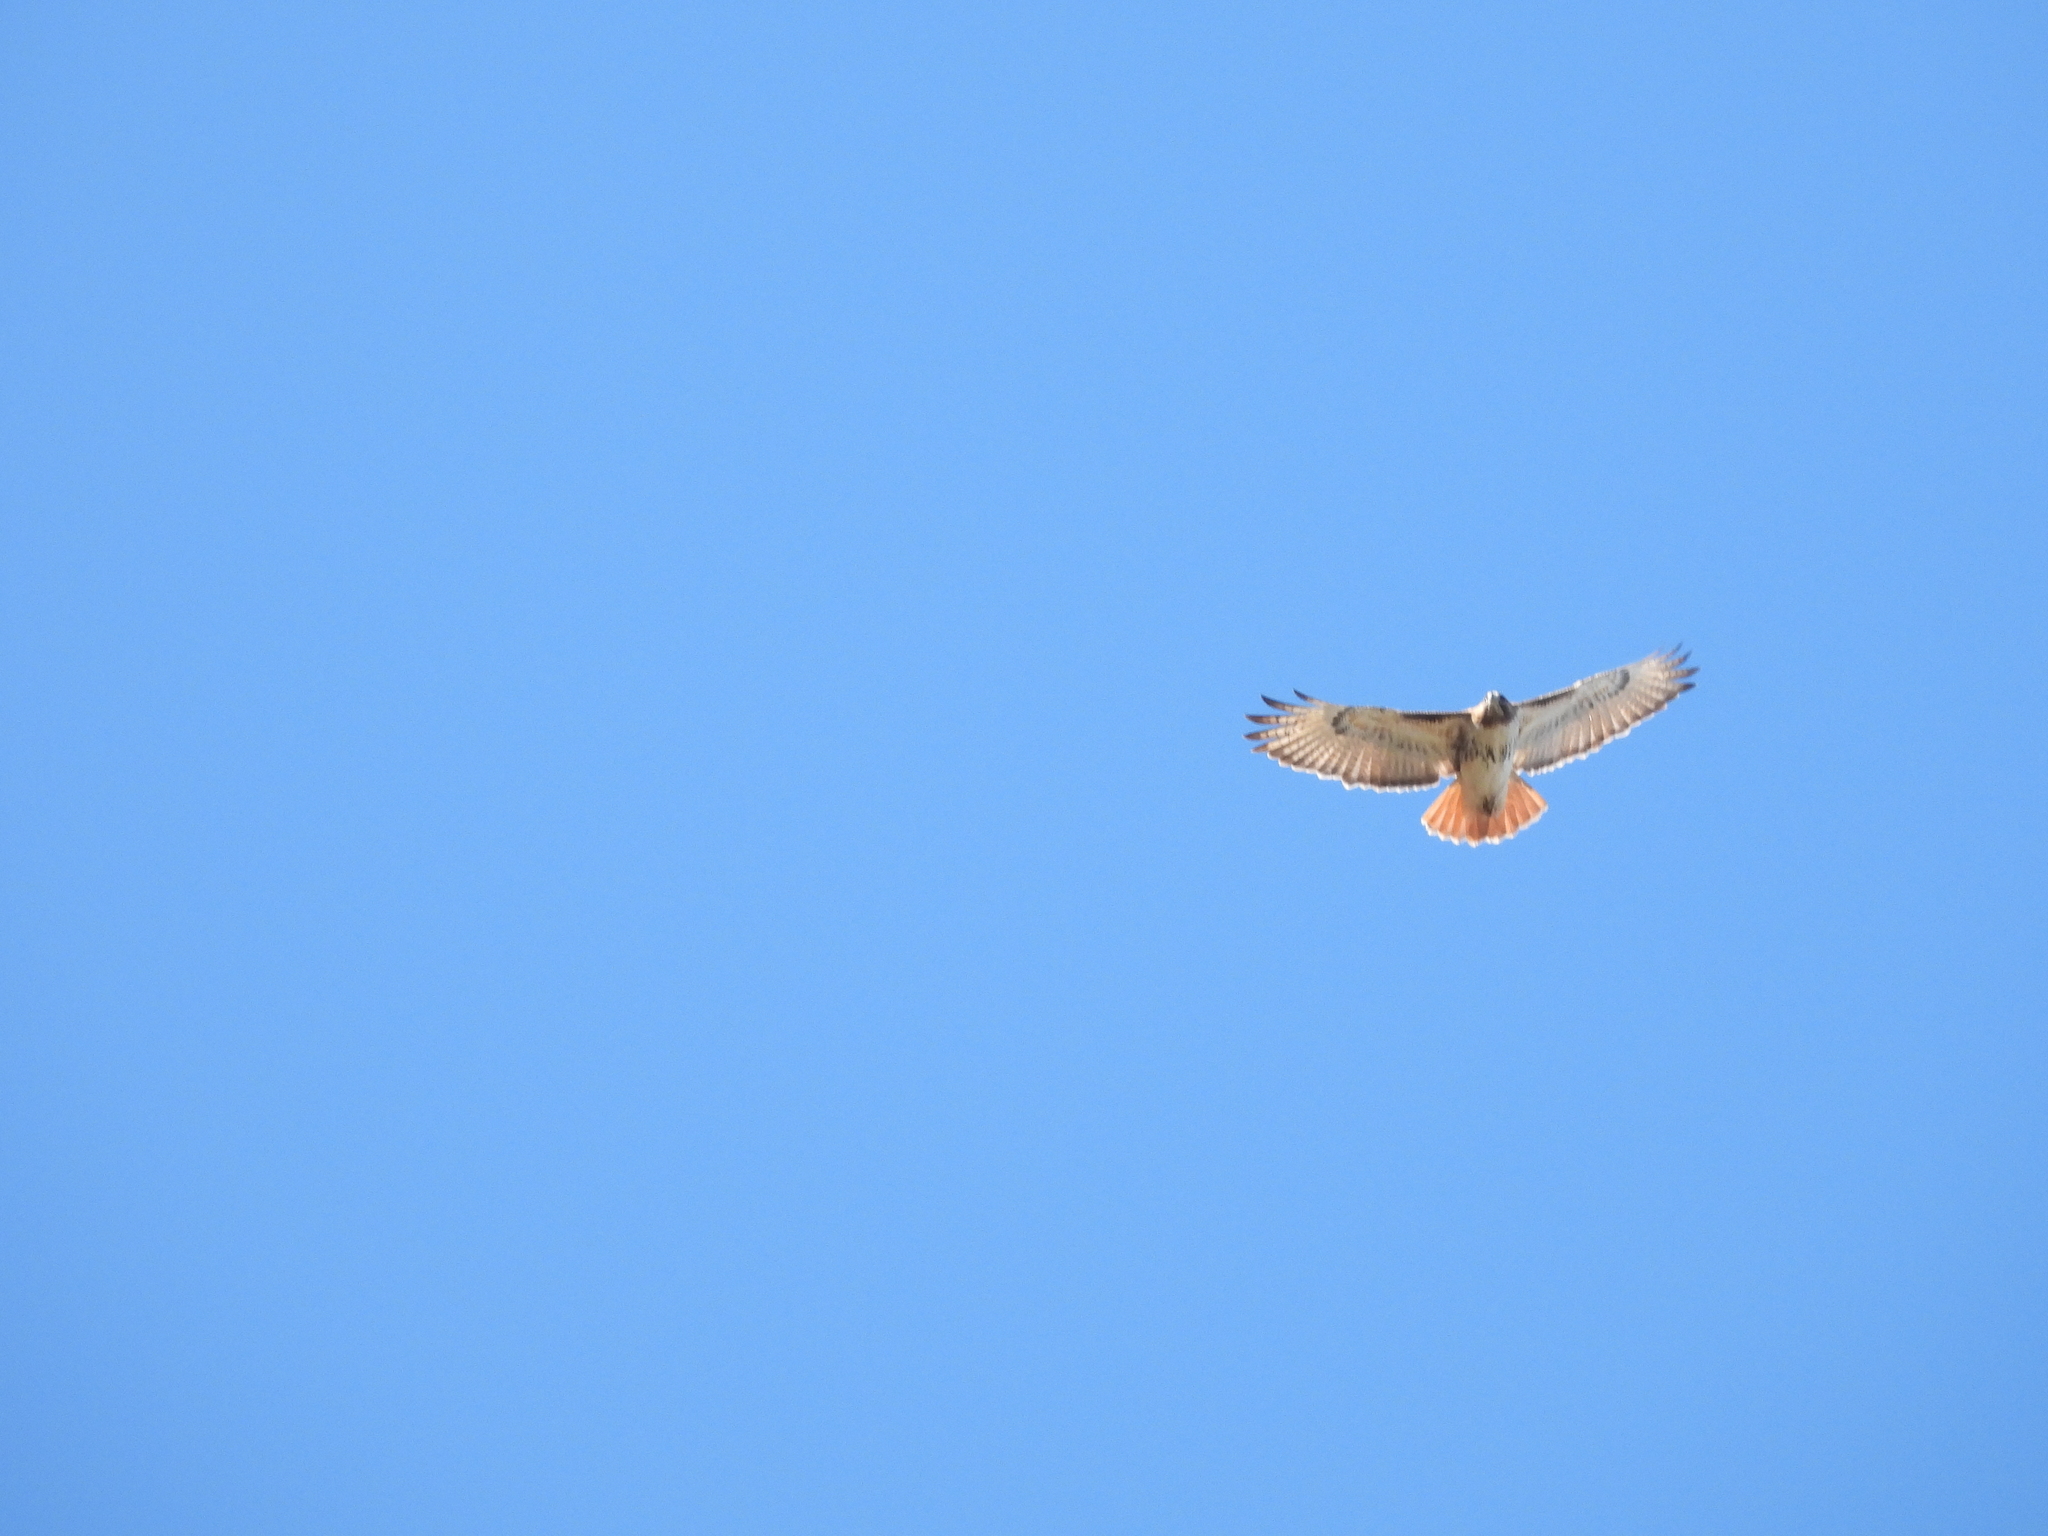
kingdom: Animalia
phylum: Chordata
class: Aves
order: Accipitriformes
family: Accipitridae
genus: Buteo
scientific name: Buteo jamaicensis
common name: Red-tailed hawk
